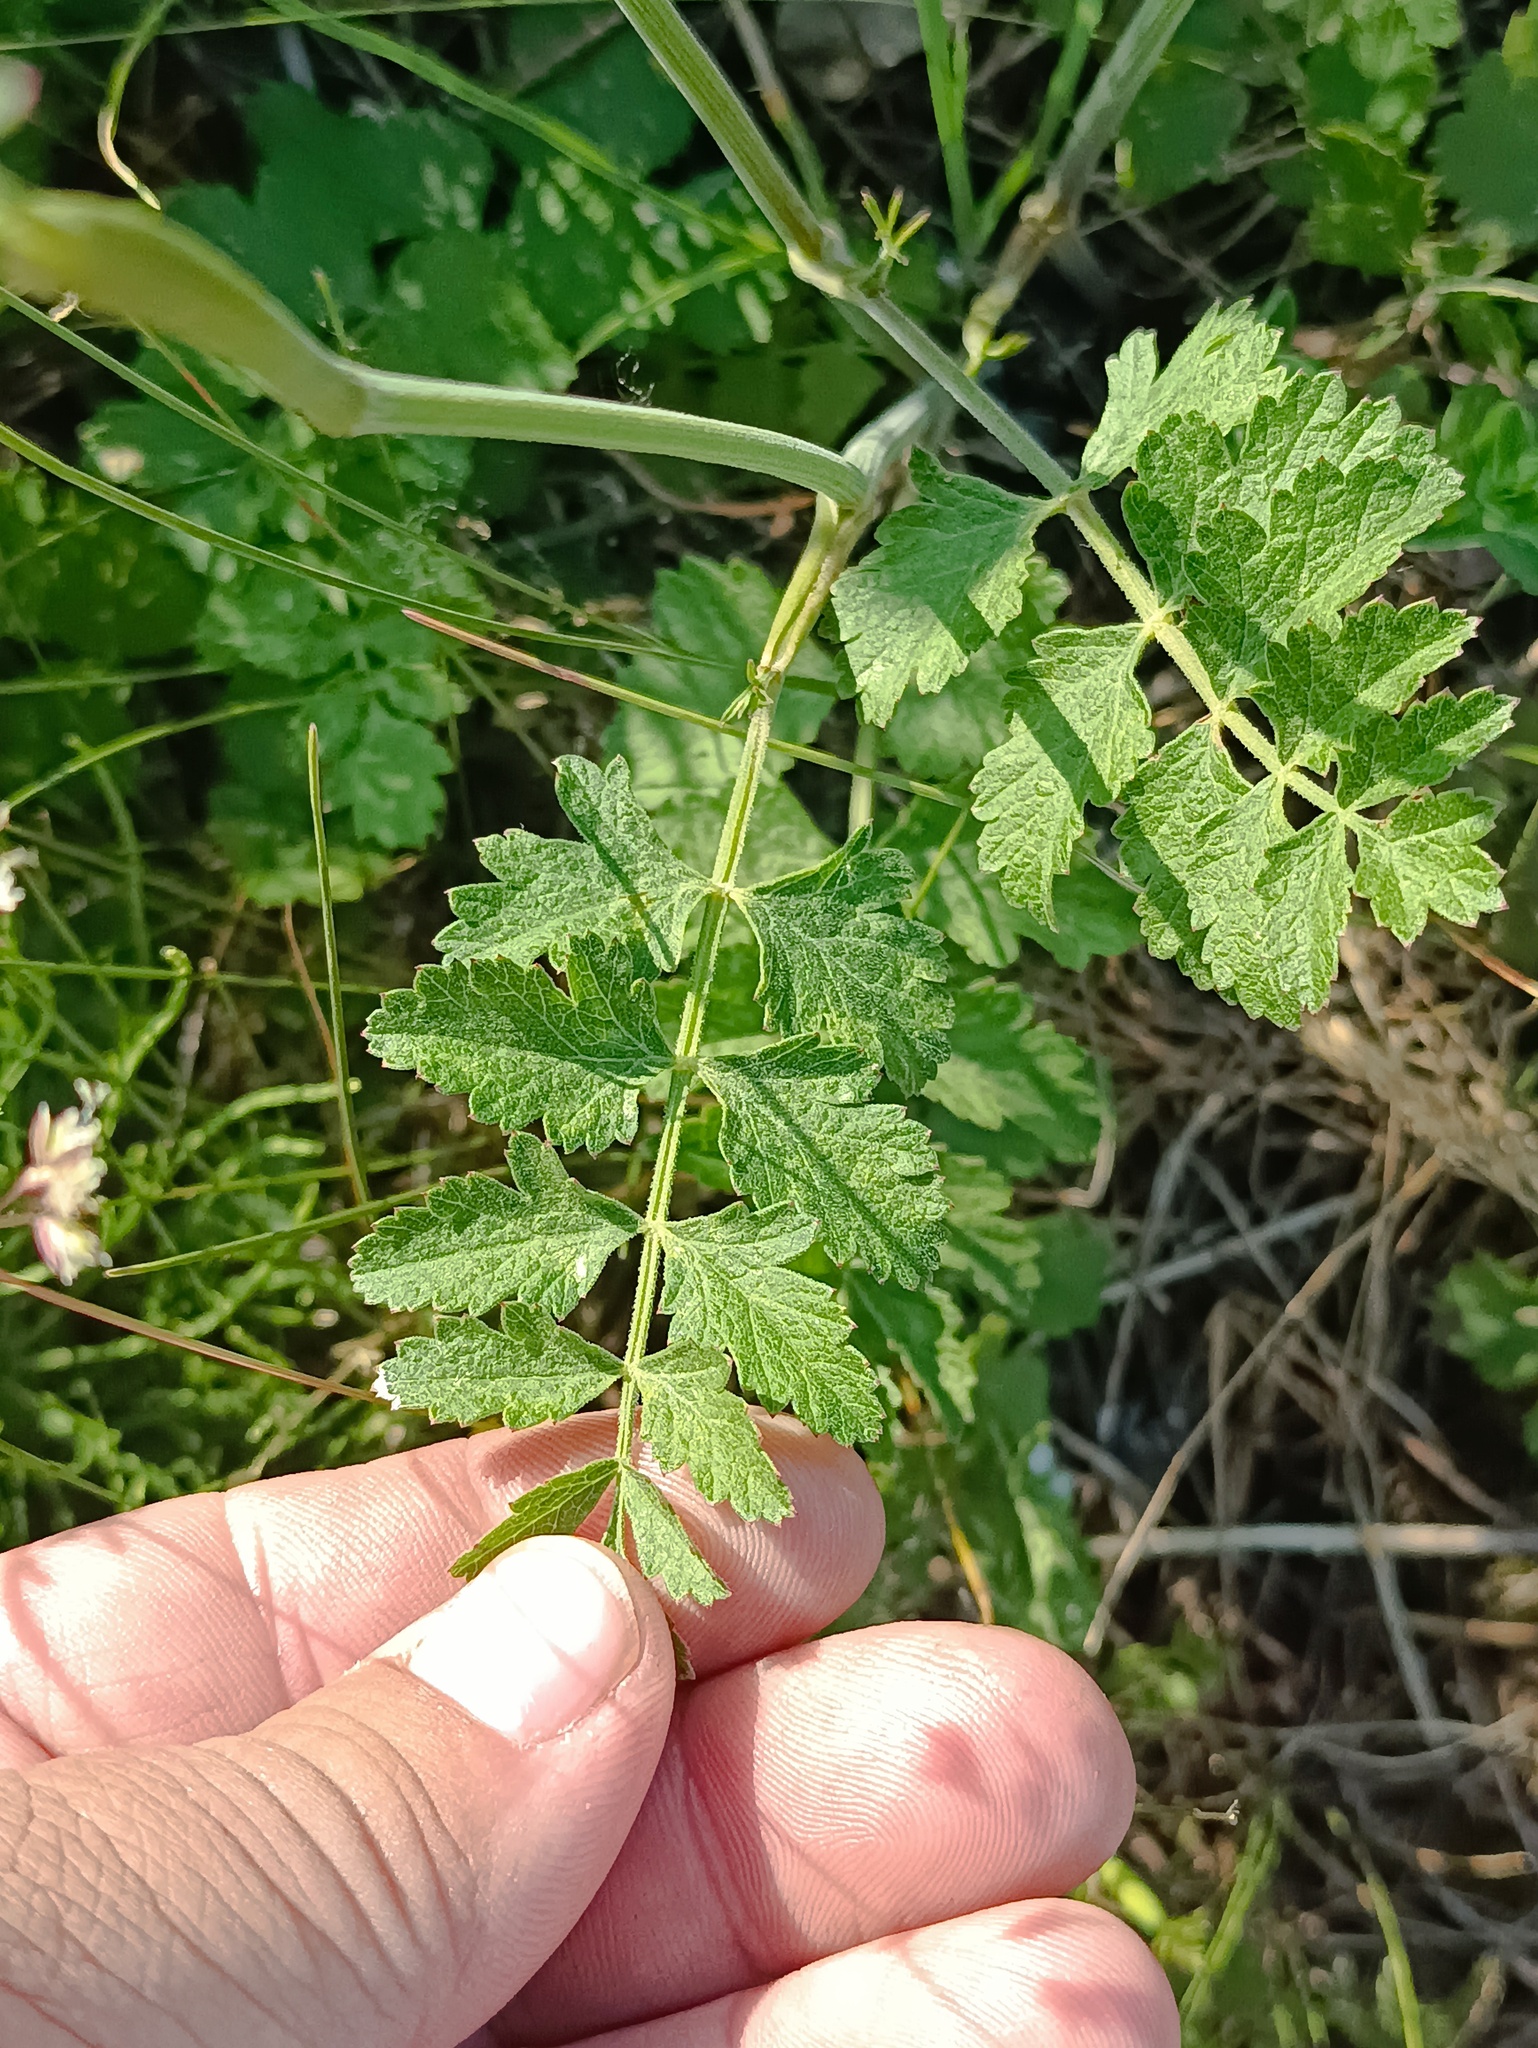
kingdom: Plantae
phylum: Tracheophyta
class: Magnoliopsida
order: Apiales
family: Apiaceae
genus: Pimpinella
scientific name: Pimpinella saxifraga
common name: Burnet-saxifrage
